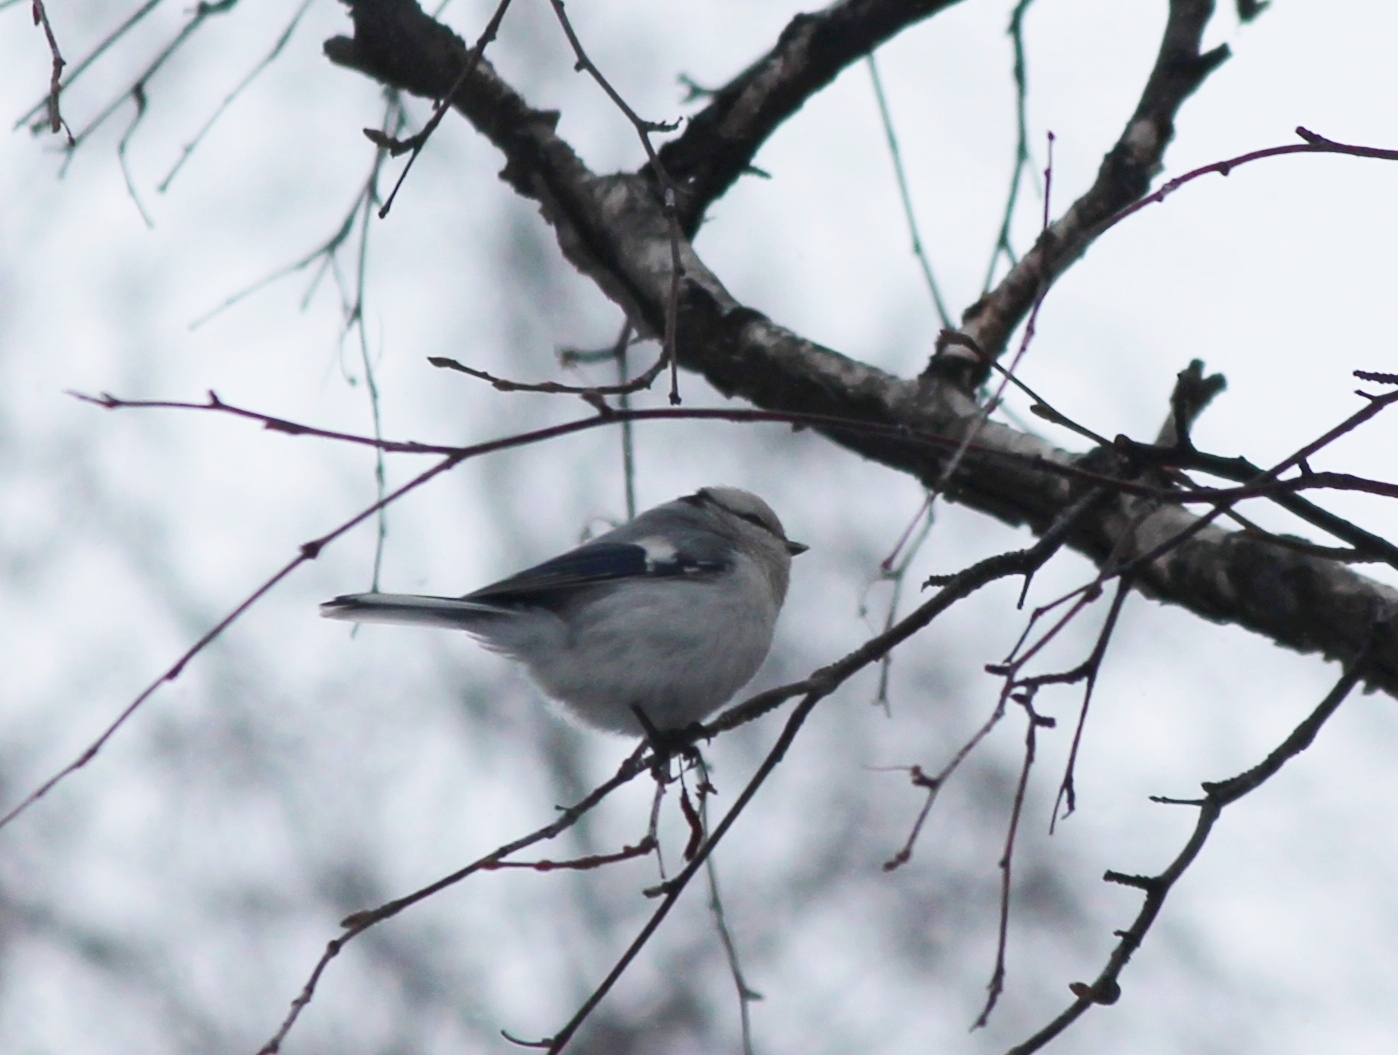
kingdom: Animalia
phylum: Chordata
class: Aves
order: Passeriformes
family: Paridae
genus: Cyanistes
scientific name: Cyanistes cyanus
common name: Azure tit
